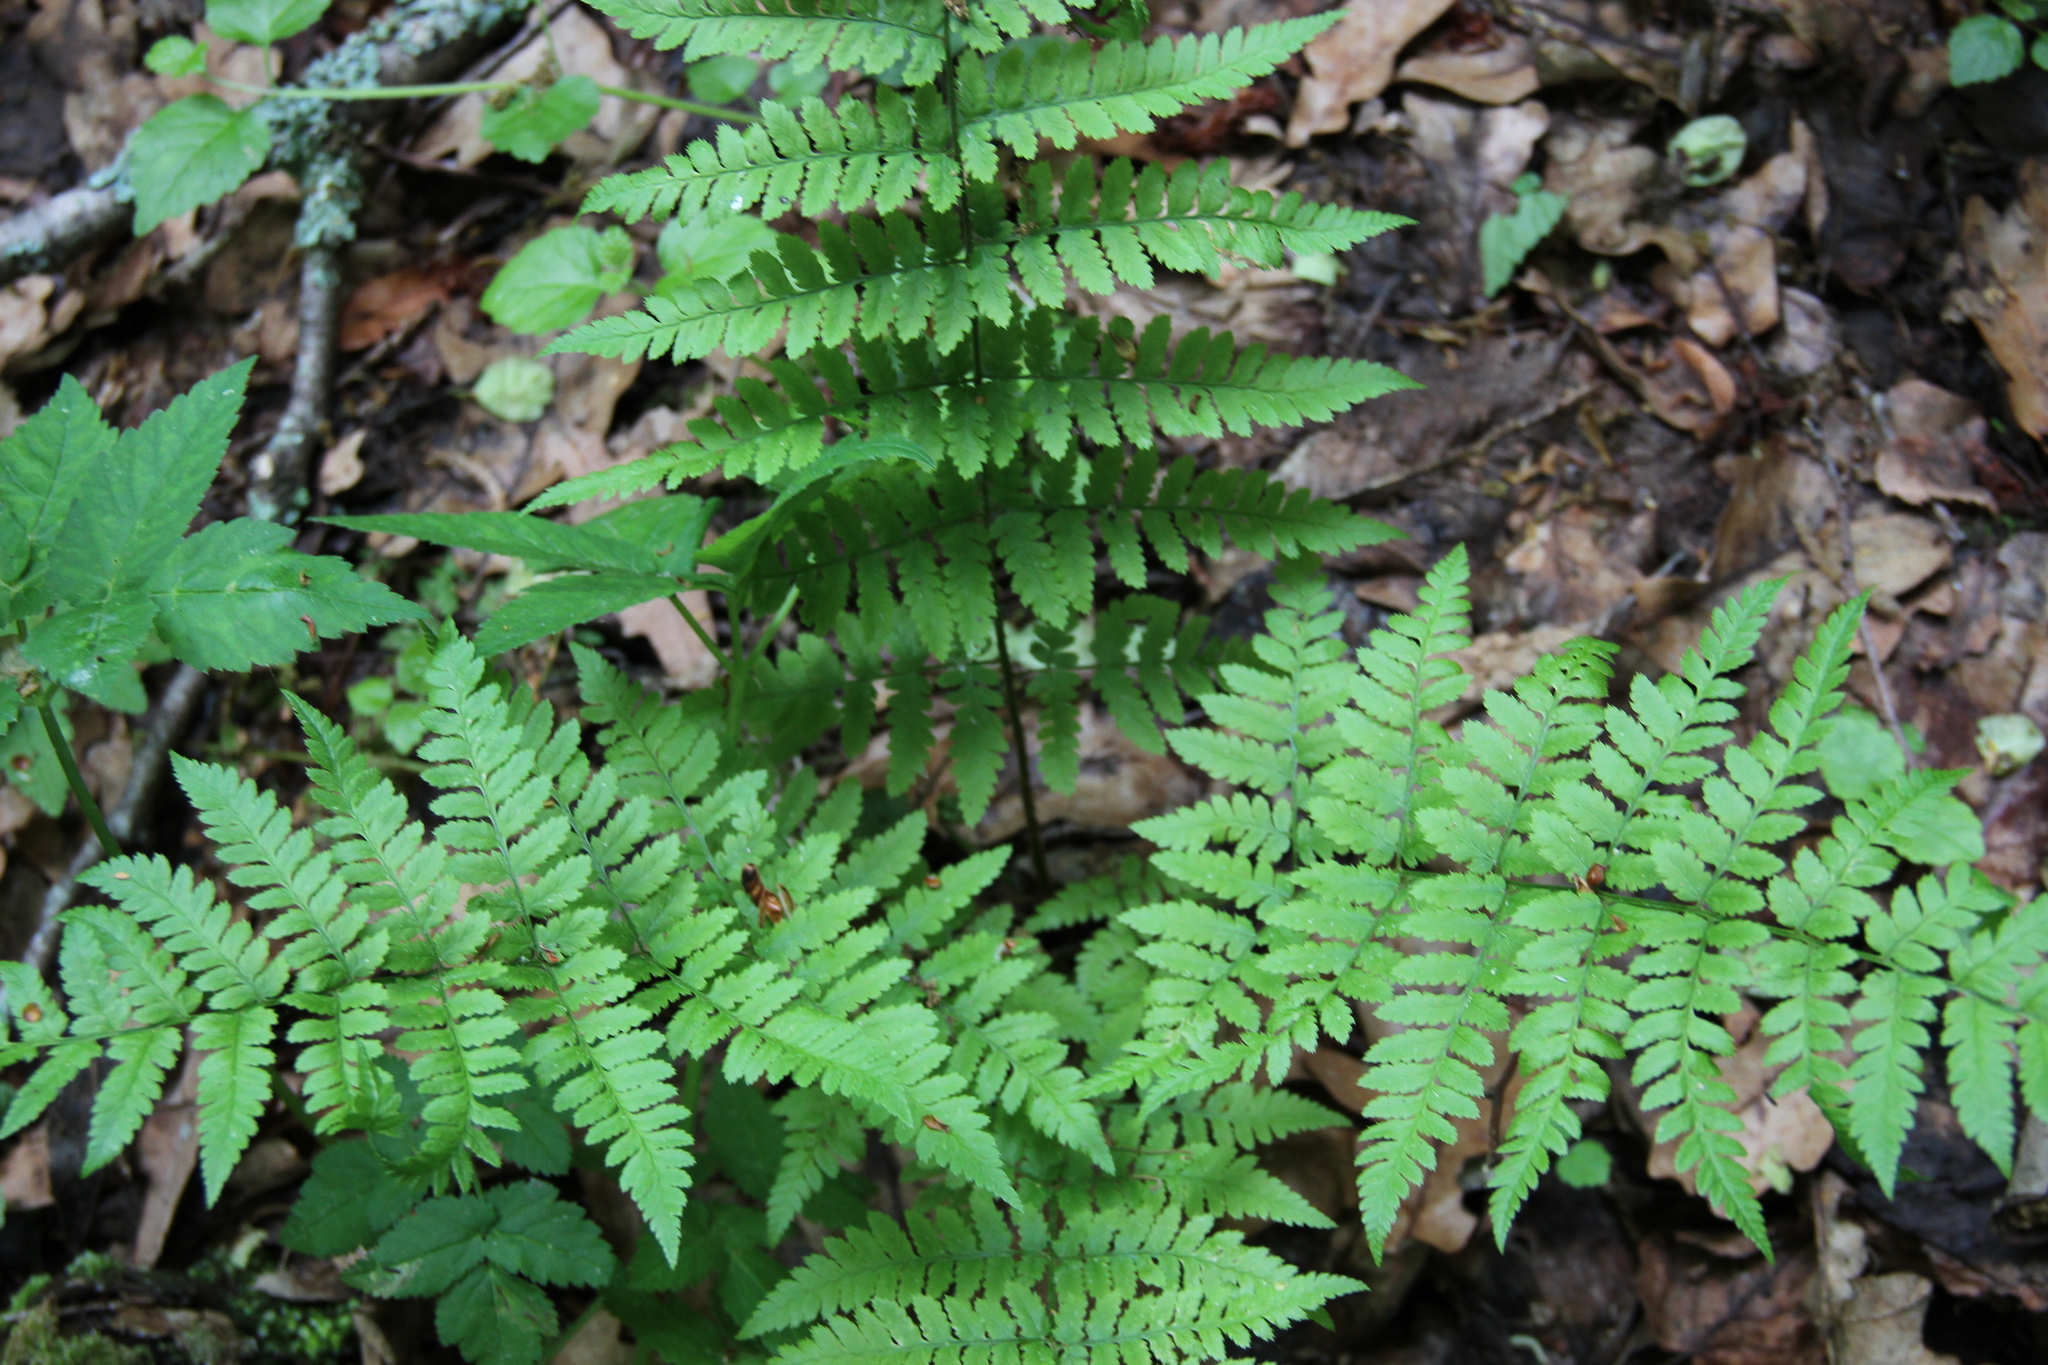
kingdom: Plantae
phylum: Tracheophyta
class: Polypodiopsida
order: Polypodiales
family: Dryopteridaceae
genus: Dryopteris
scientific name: Dryopteris carthusiana
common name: Narrow buckler-fern
